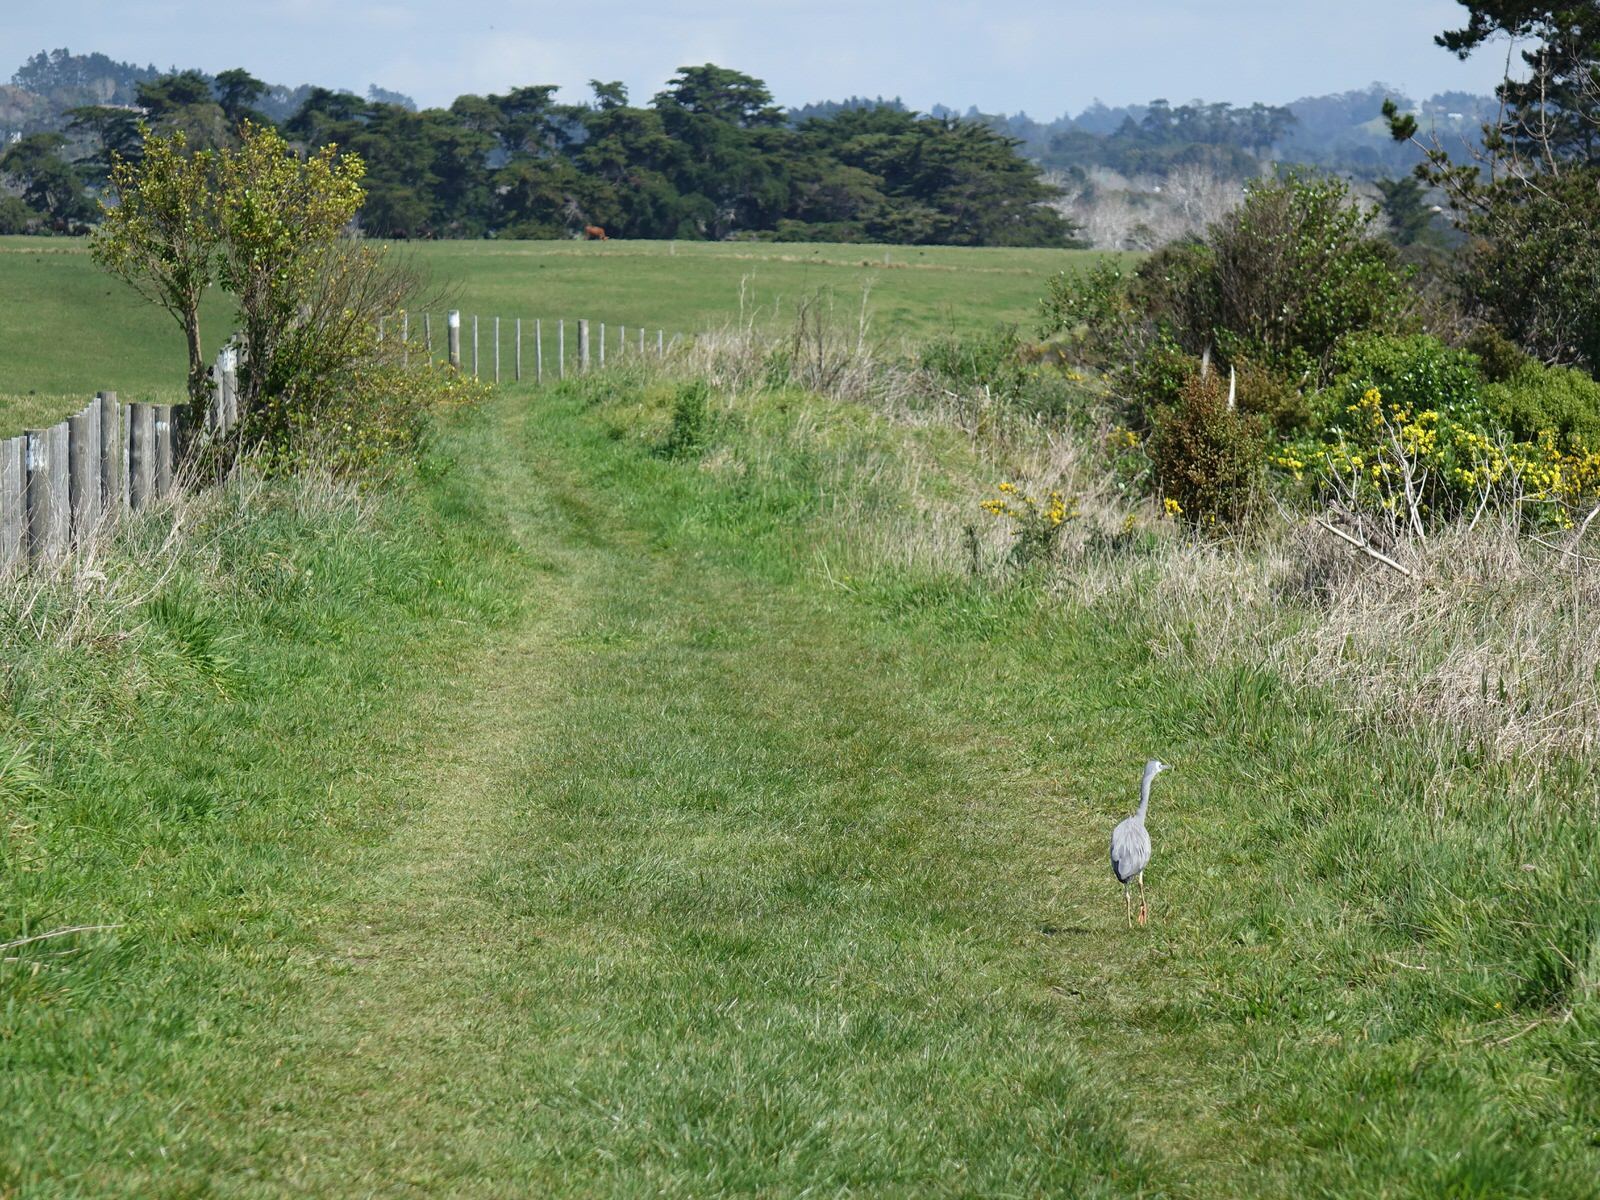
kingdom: Animalia
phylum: Chordata
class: Aves
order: Pelecaniformes
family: Ardeidae
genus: Egretta
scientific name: Egretta novaehollandiae
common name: White-faced heron
